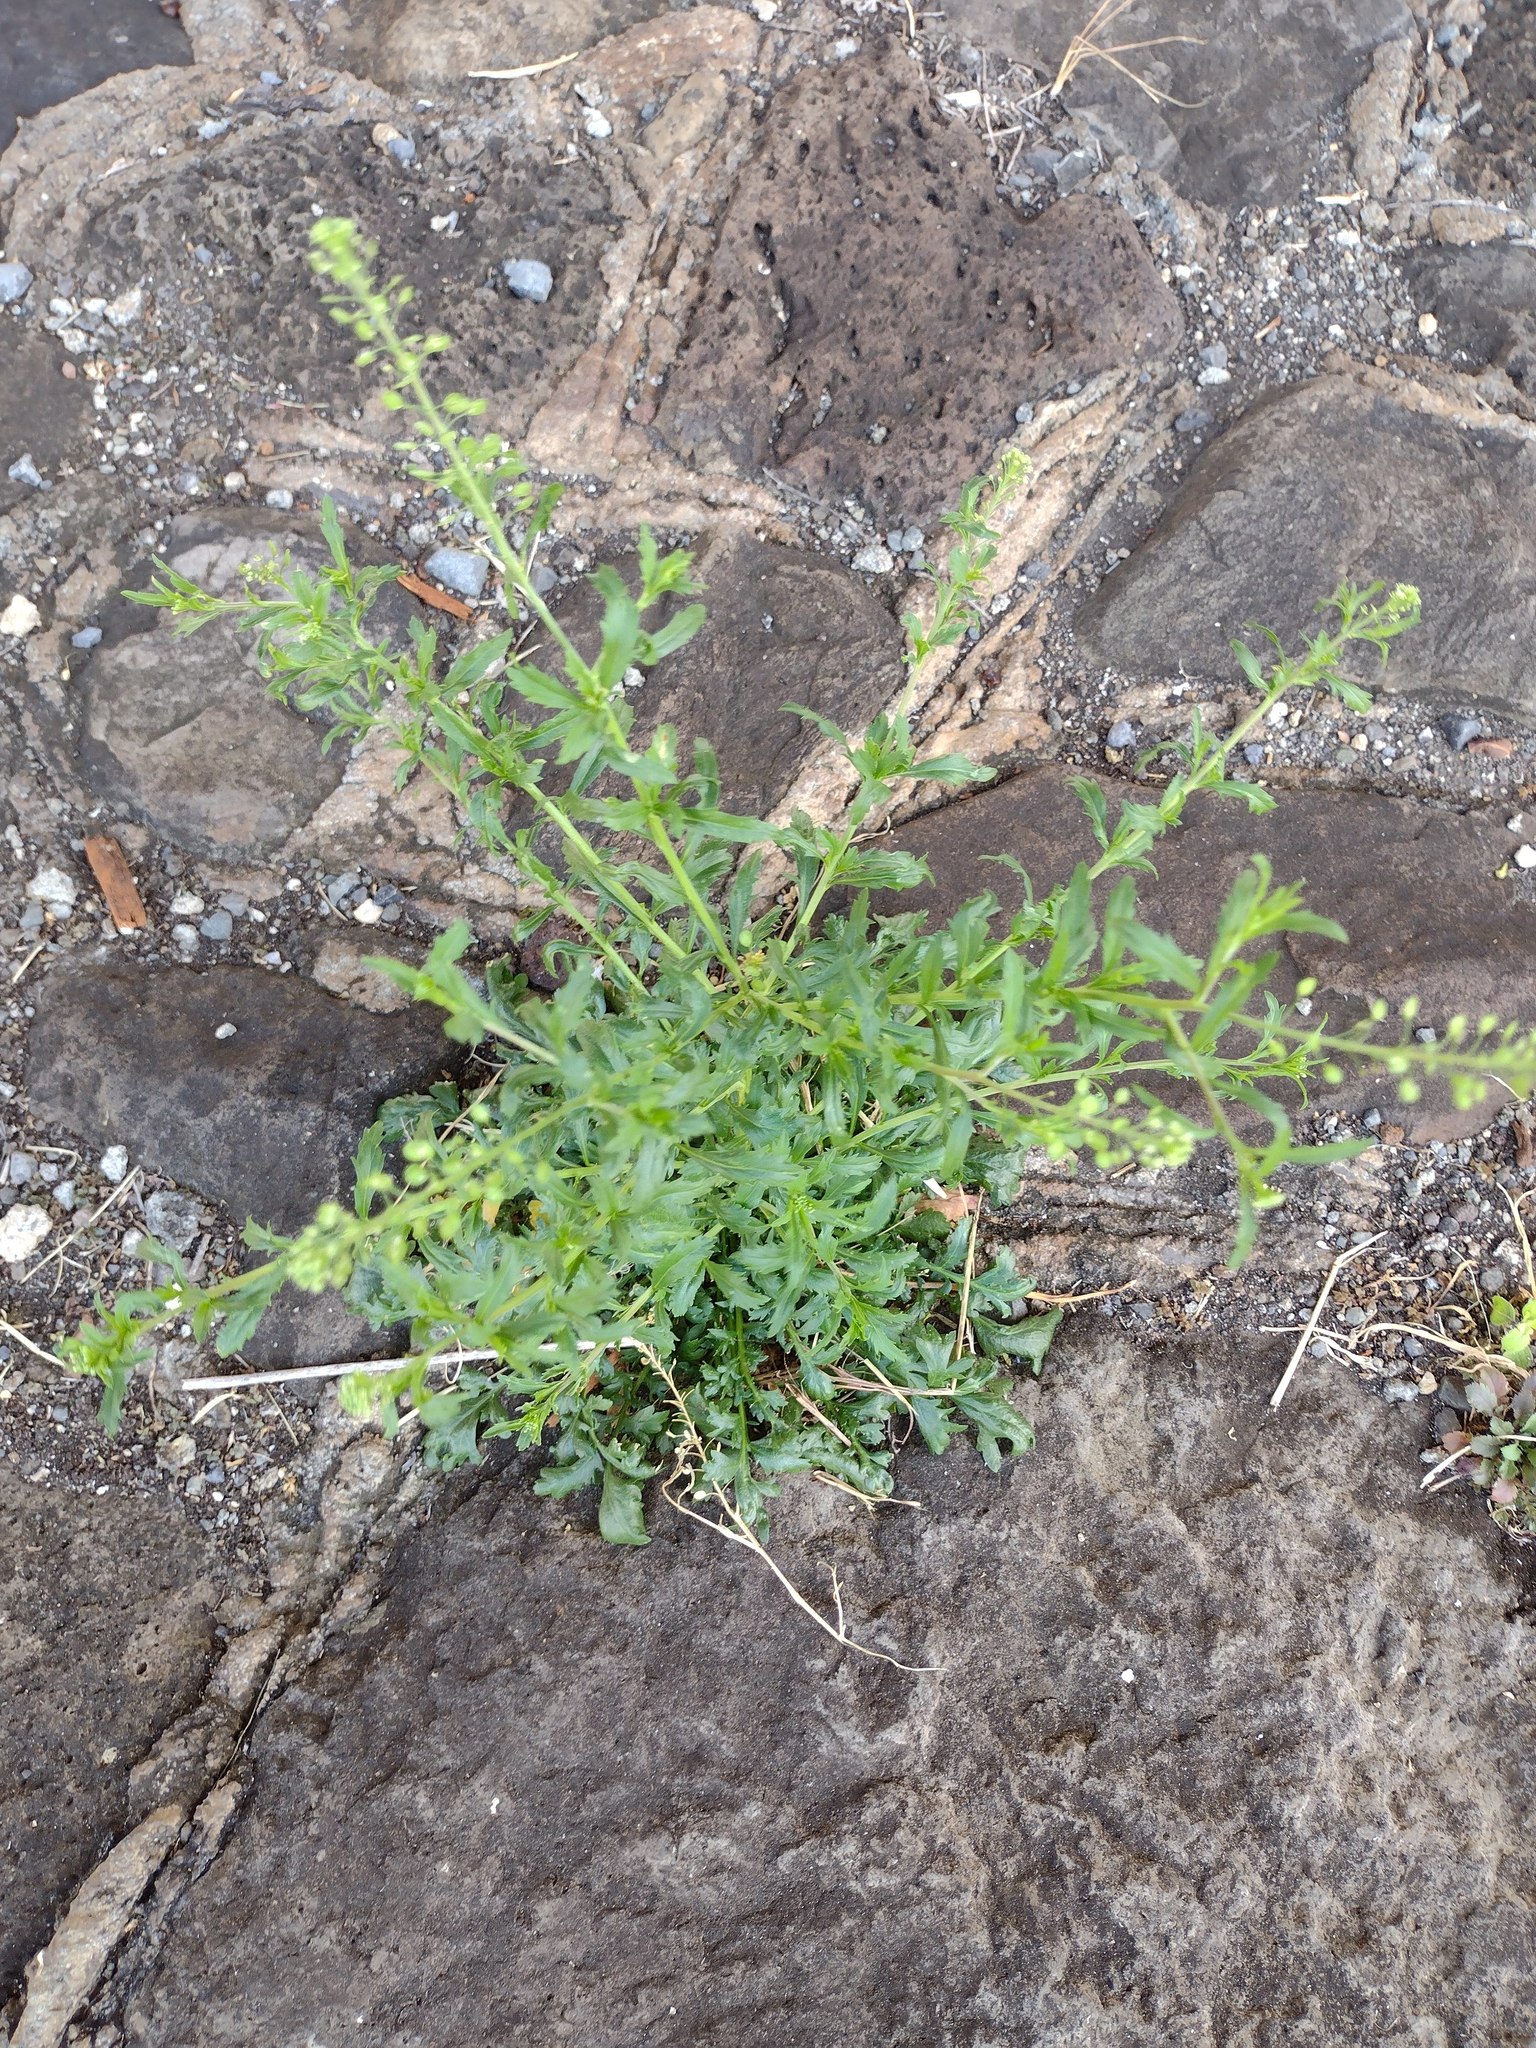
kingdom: Plantae
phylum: Tracheophyta
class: Magnoliopsida
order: Brassicales
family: Brassicaceae
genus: Lepidium
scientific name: Lepidium virginicum
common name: Least pepperwort
